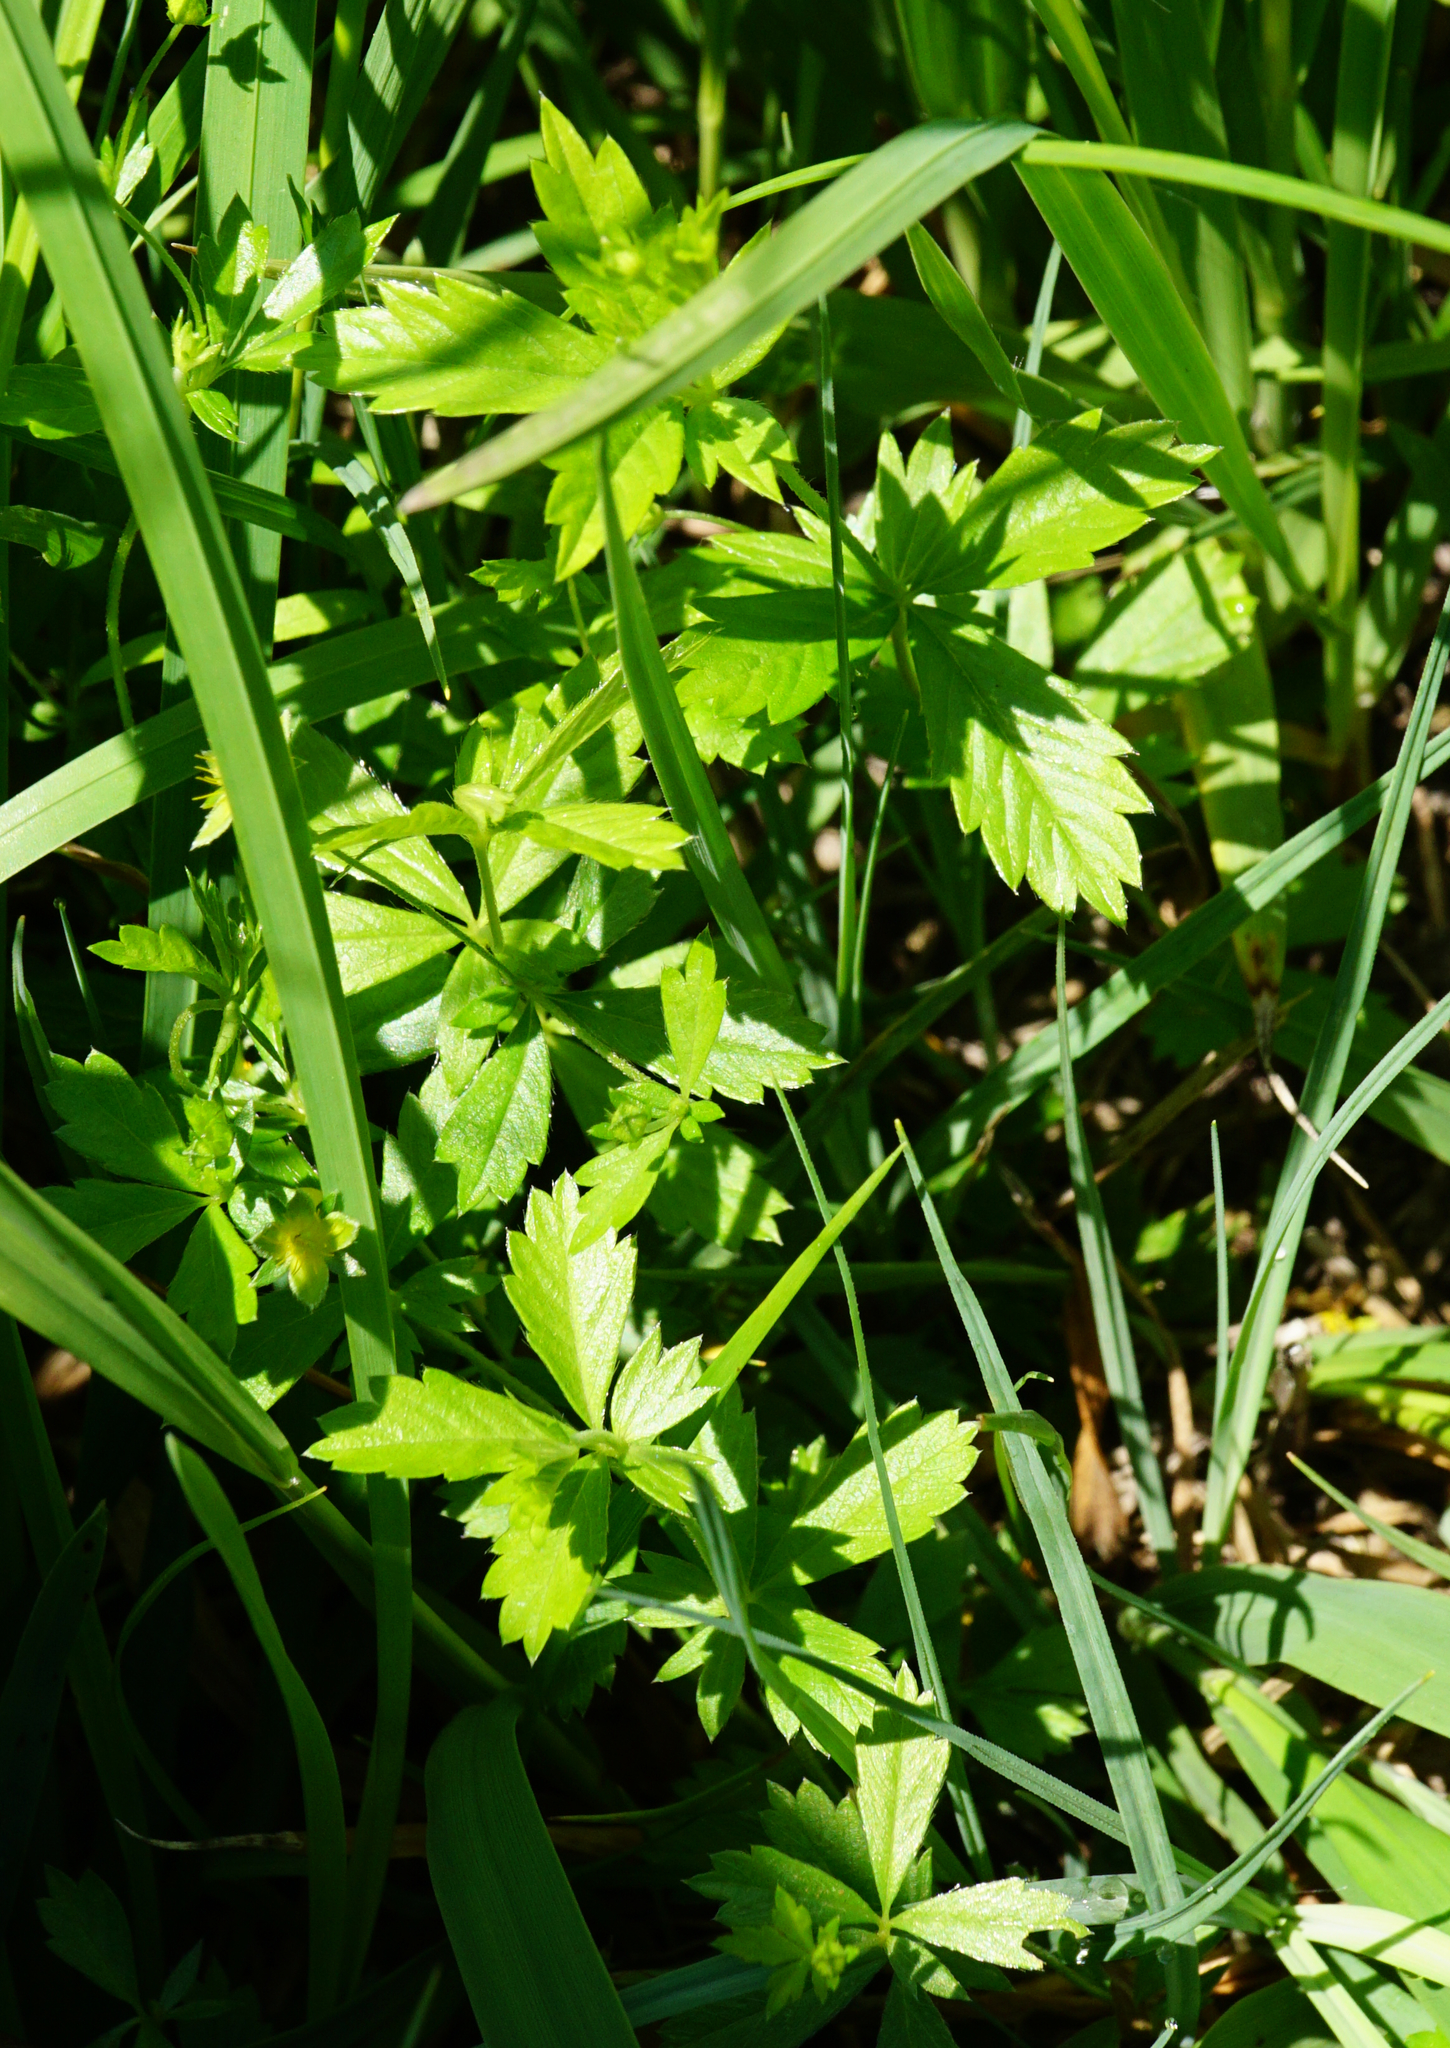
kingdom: Plantae
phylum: Tracheophyta
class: Magnoliopsida
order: Rosales
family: Rosaceae
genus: Potentilla
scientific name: Potentilla erecta
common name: Tormentil
